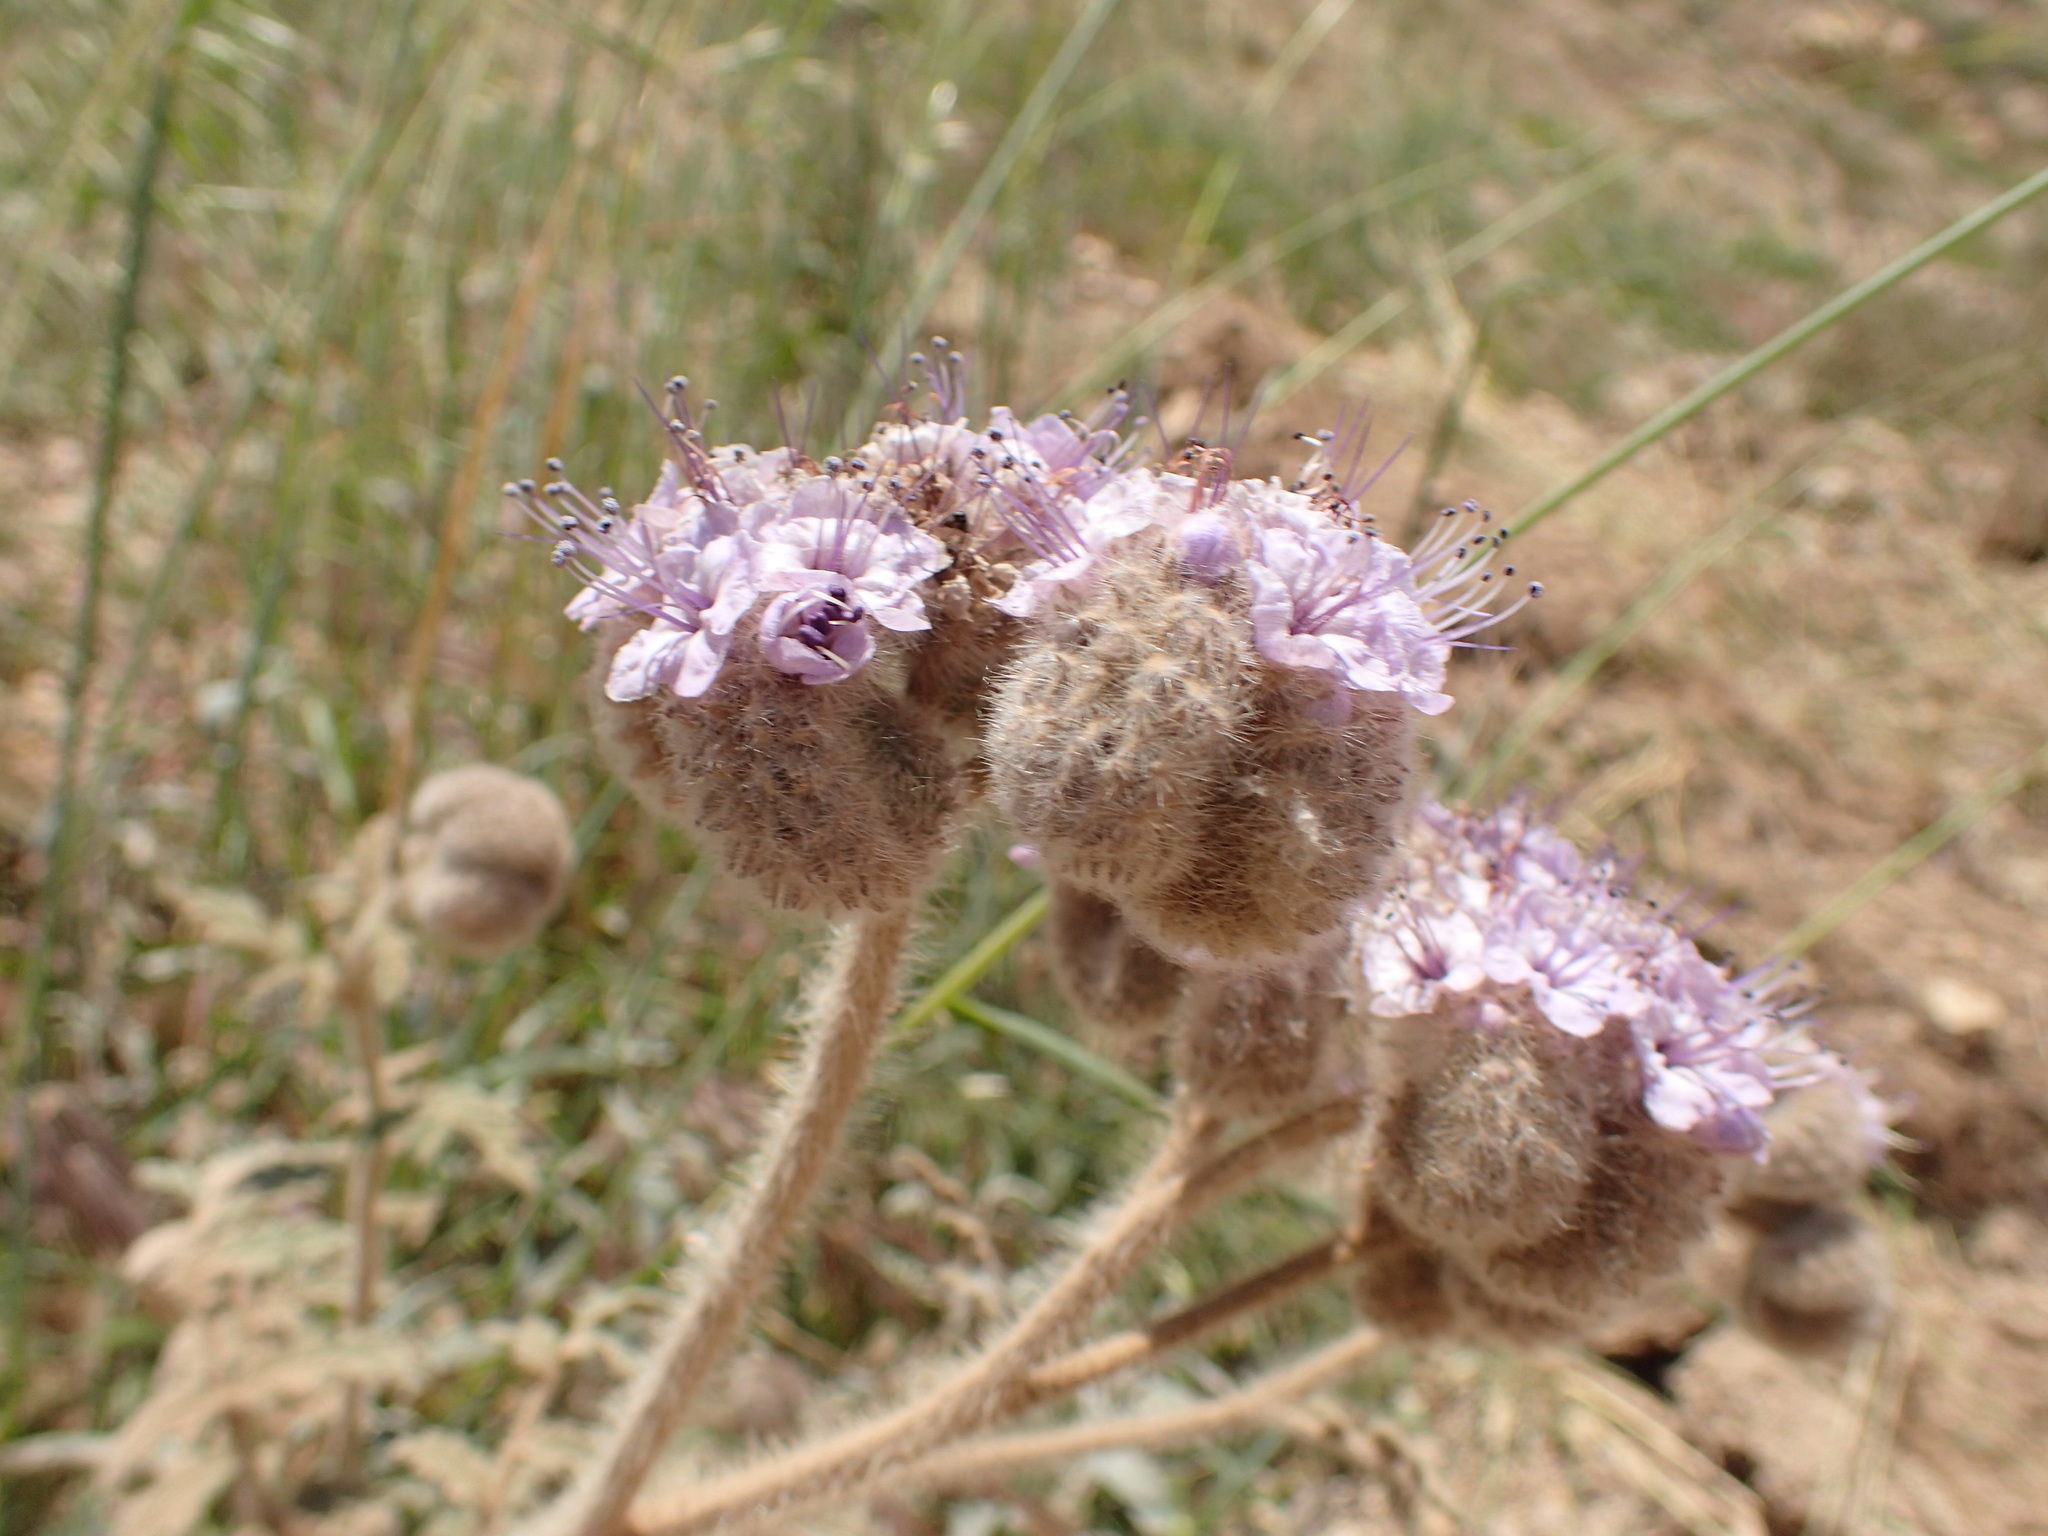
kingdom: Plantae
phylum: Tracheophyta
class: Magnoliopsida
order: Boraginales
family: Hydrophyllaceae
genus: Phacelia
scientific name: Phacelia hubbyi
